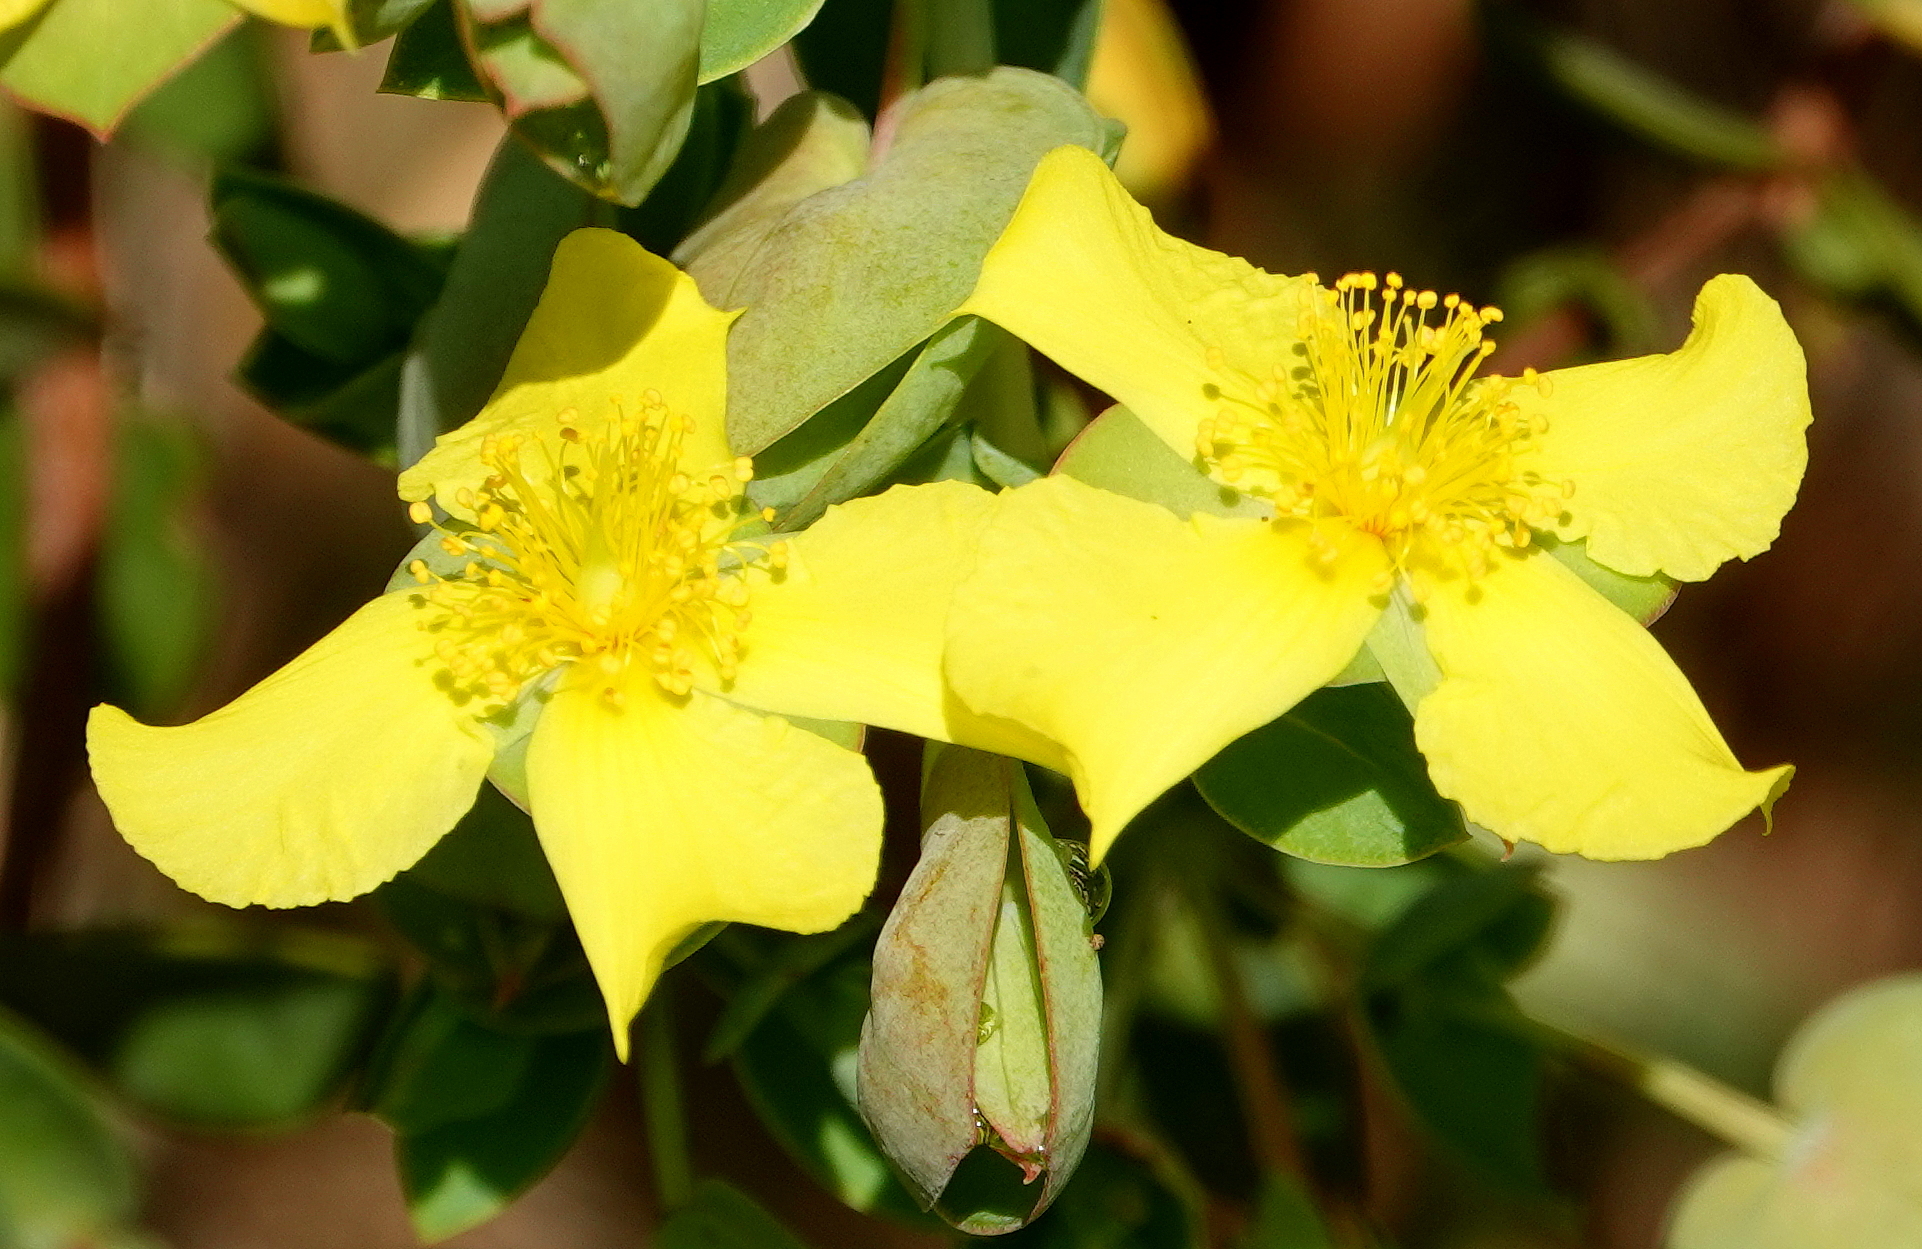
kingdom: Plantae
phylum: Tracheophyta
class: Magnoliopsida
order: Malpighiales
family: Hypericaceae
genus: Hypericum
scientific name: Hypericum tetrapetalum
